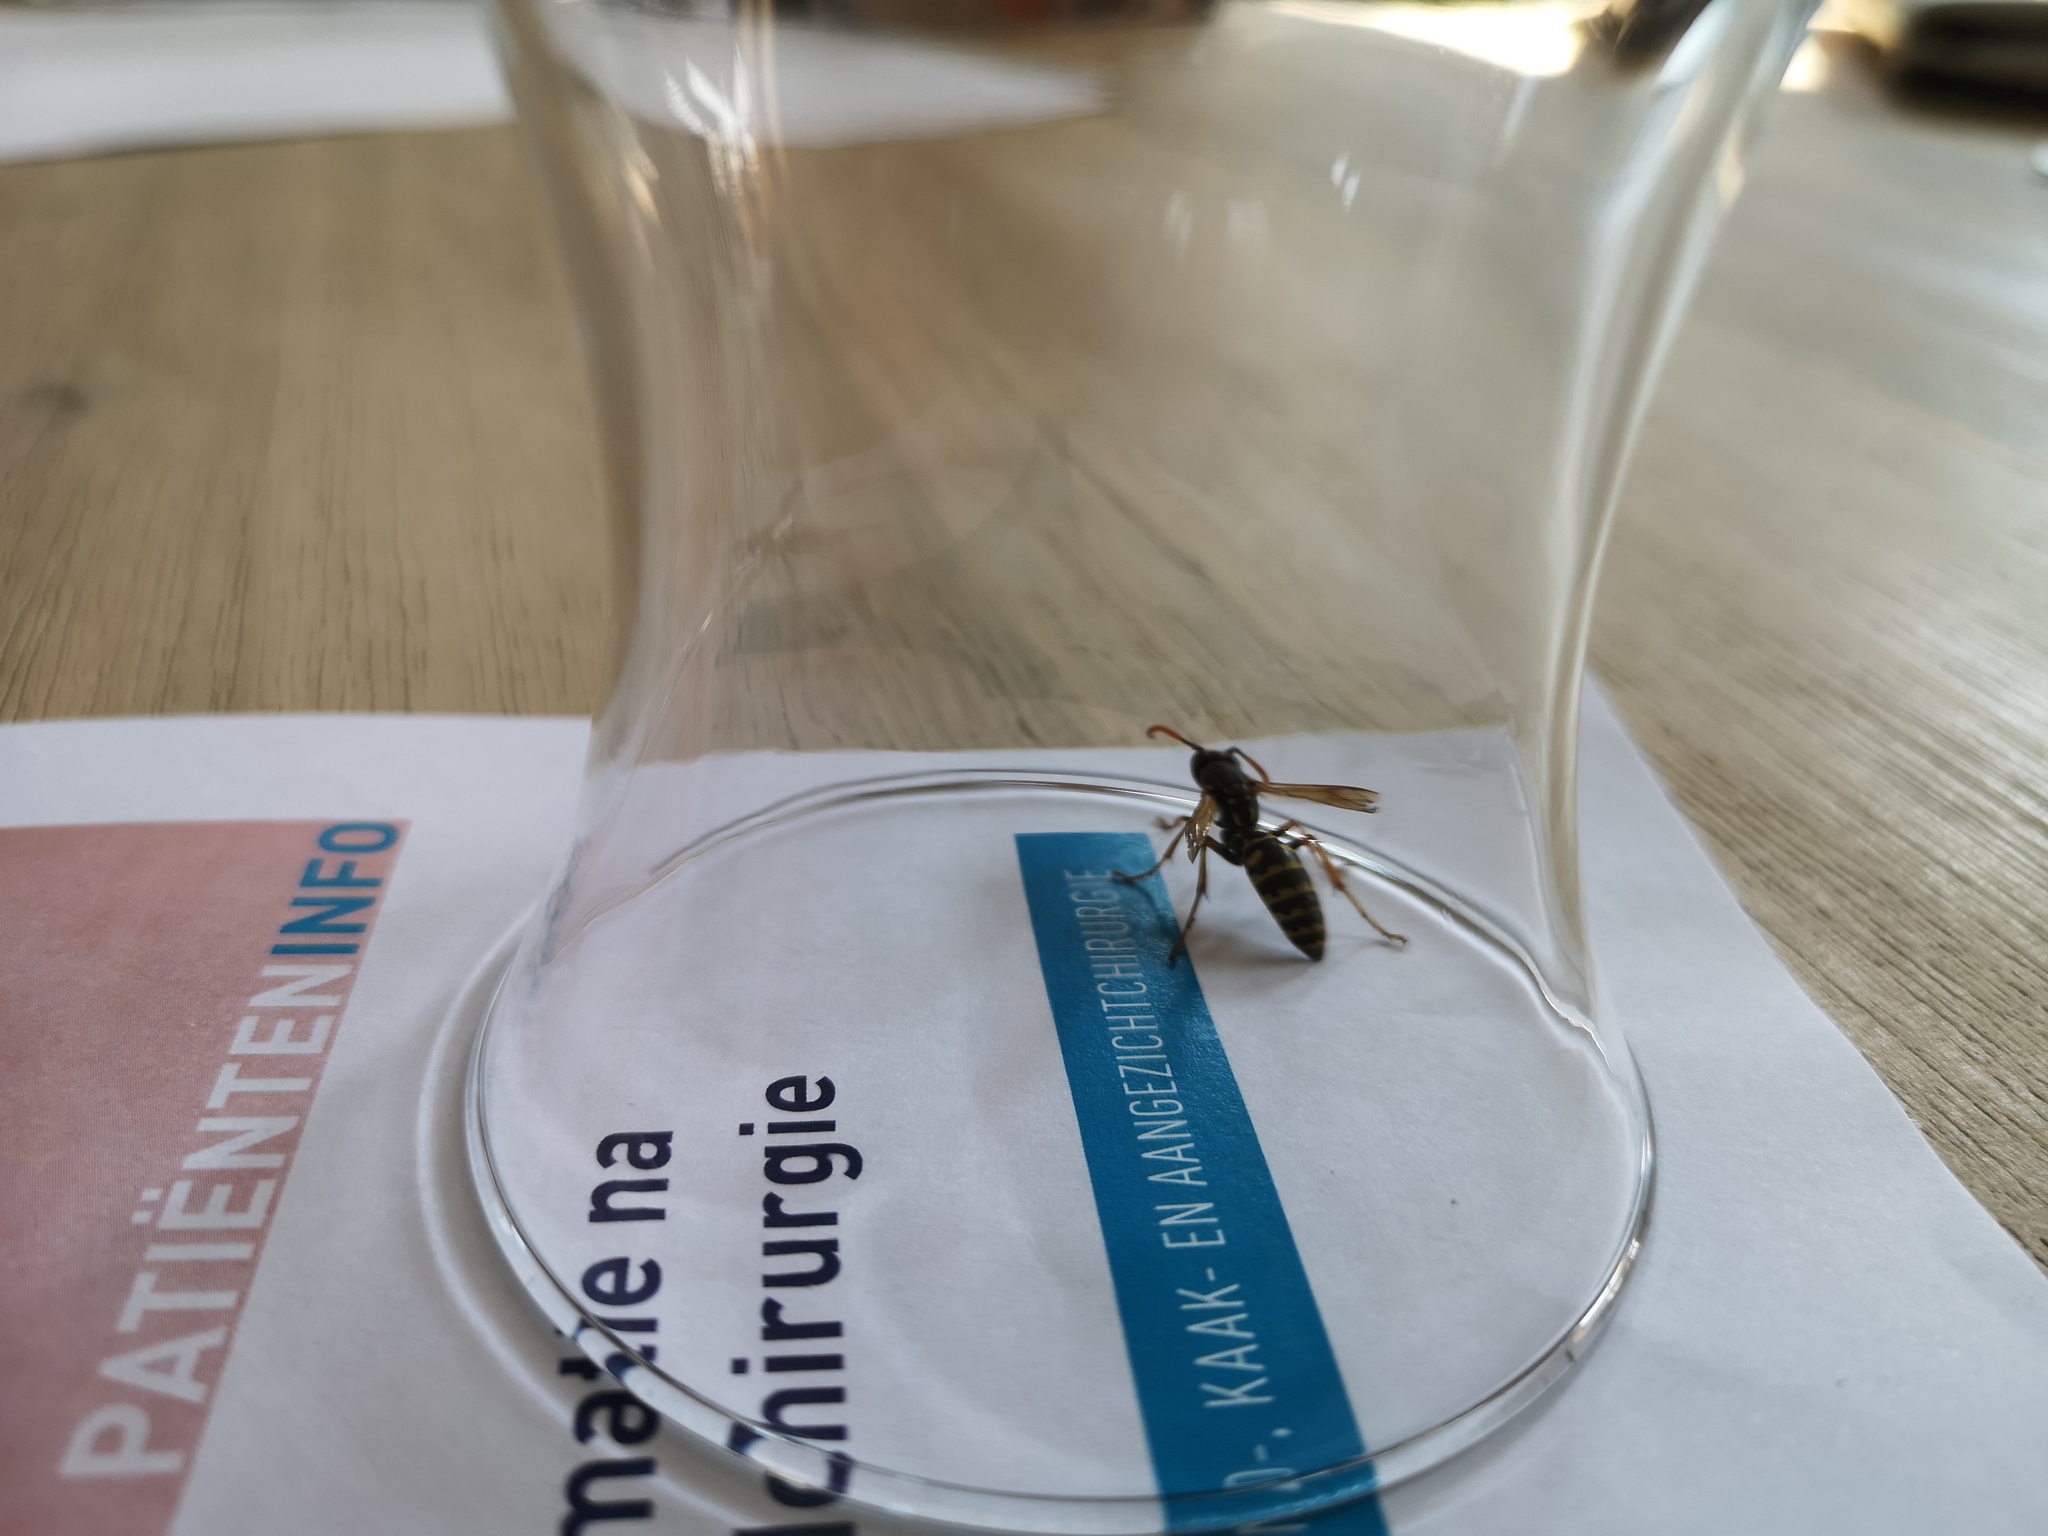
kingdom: Animalia
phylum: Arthropoda
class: Insecta
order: Hymenoptera
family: Eumenidae
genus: Polistes
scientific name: Polistes dominula
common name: Paper wasp
